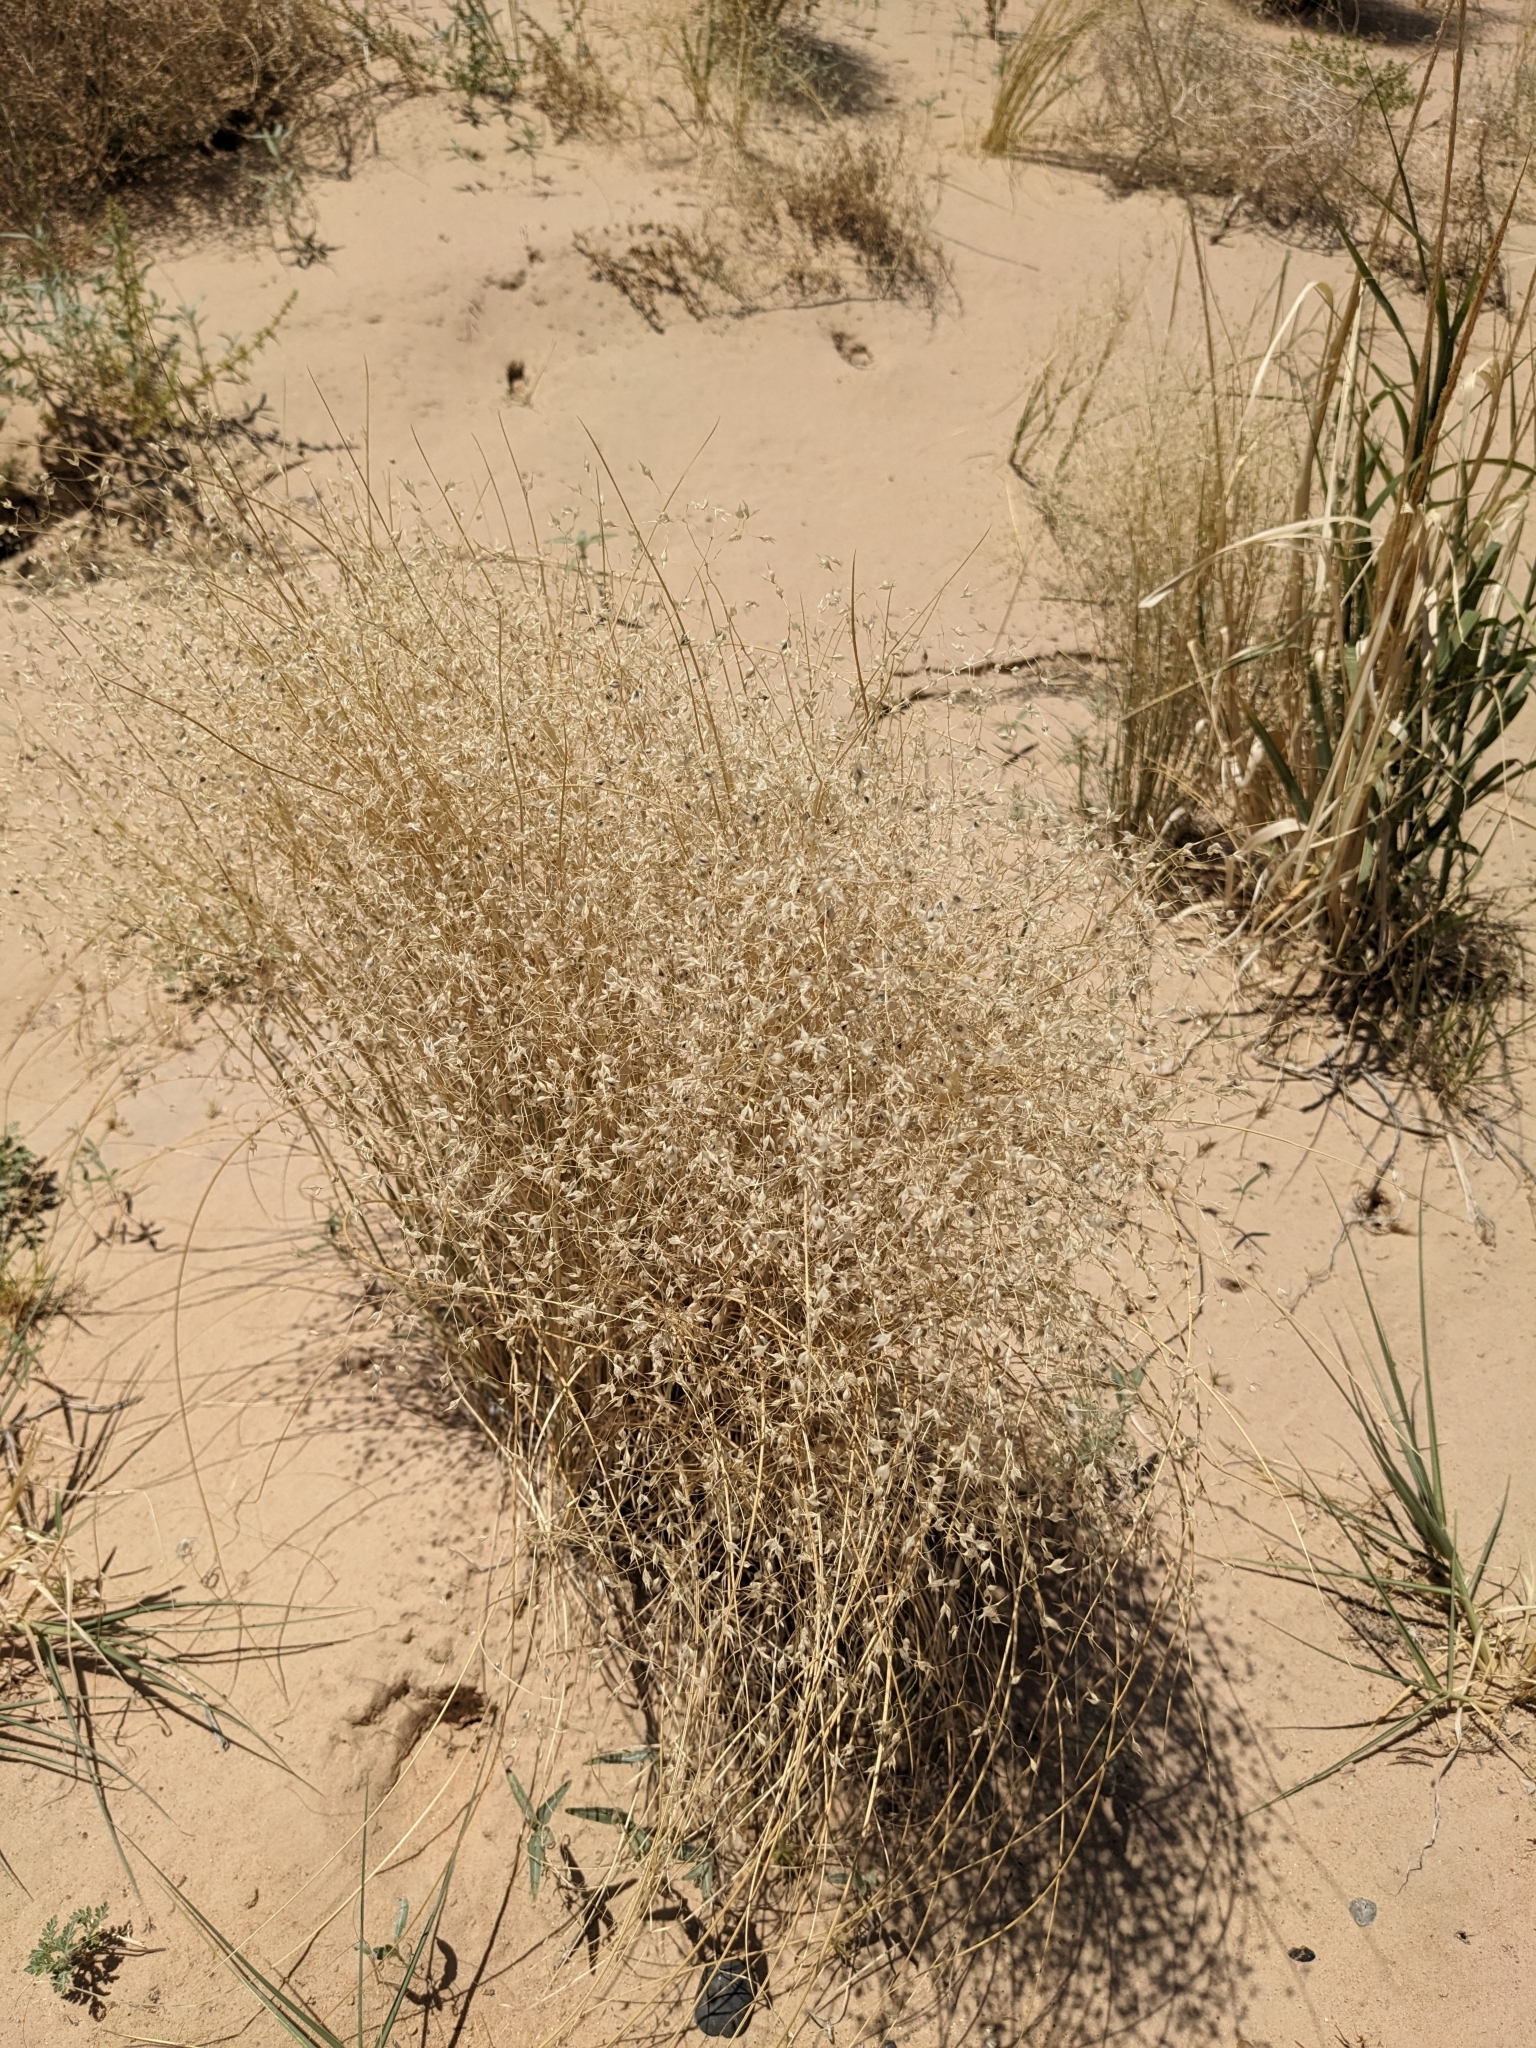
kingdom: Plantae
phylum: Tracheophyta
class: Liliopsida
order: Poales
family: Poaceae
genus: Eriocoma
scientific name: Eriocoma hymenoides
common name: Indian mountain ricegrass
